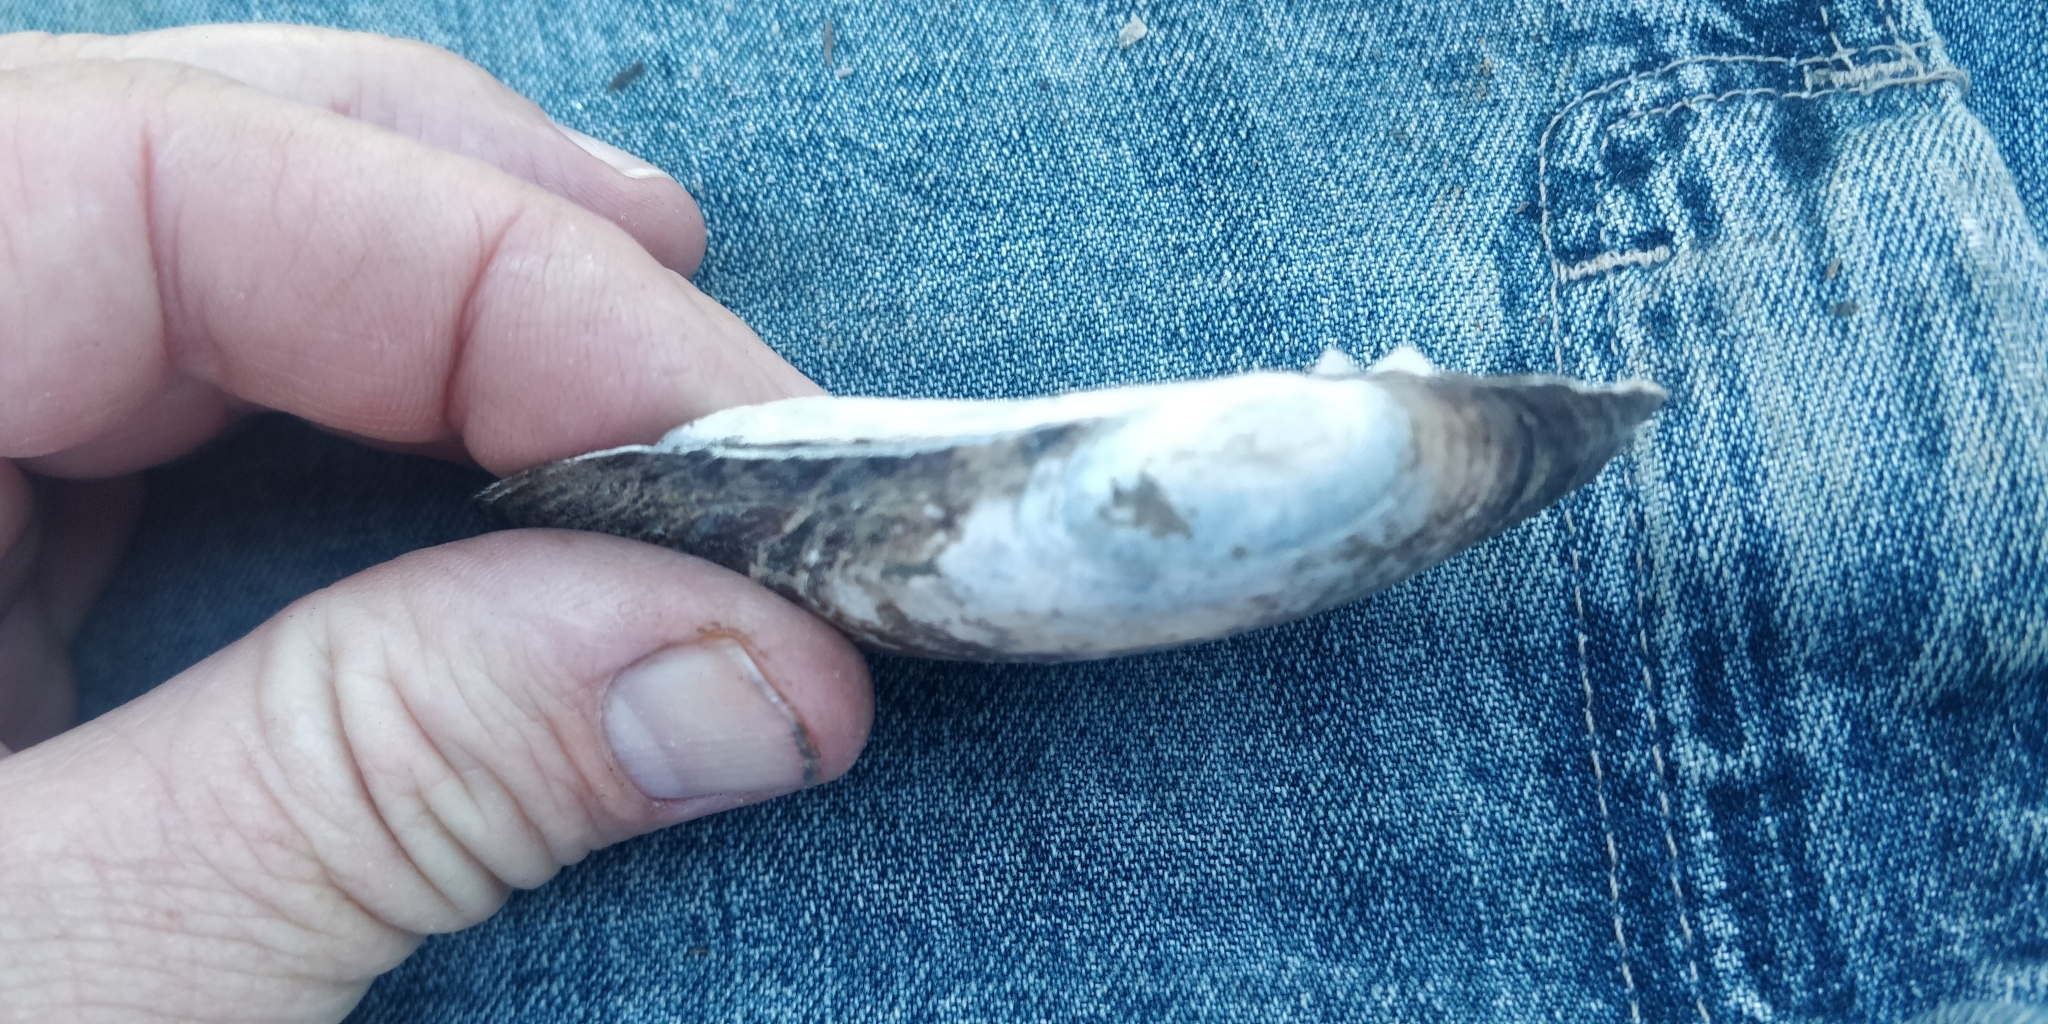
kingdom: Animalia
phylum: Mollusca
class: Bivalvia
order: Unionida
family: Unionidae
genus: Lampsilis
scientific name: Lampsilis siliquoidea
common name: Fatmucket
